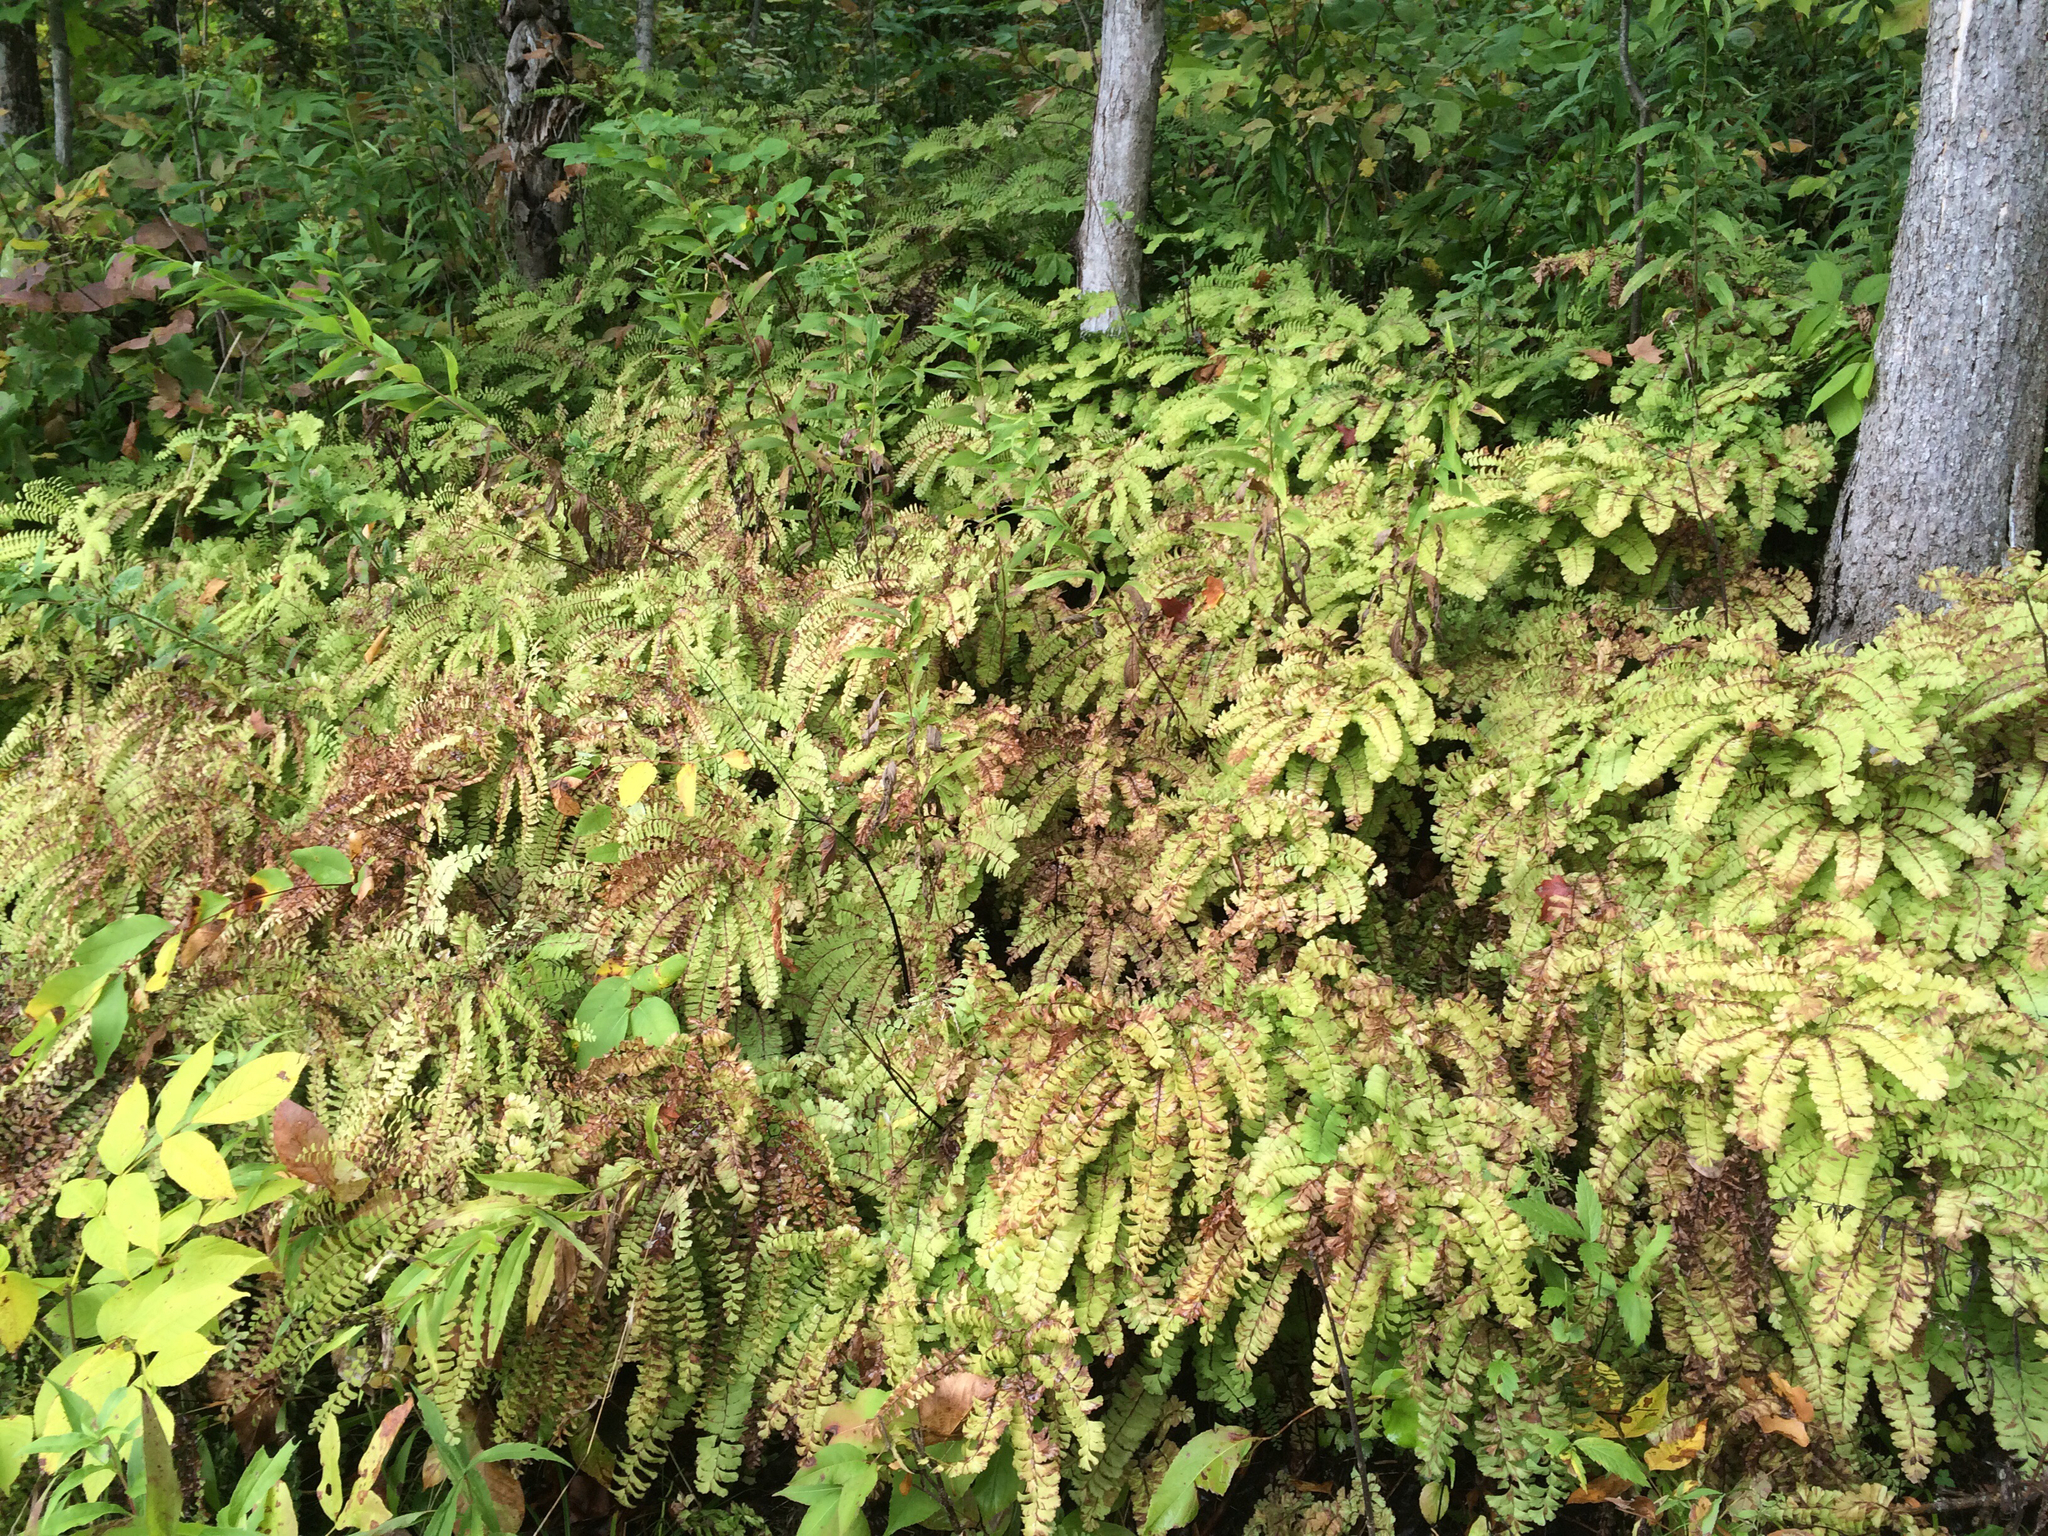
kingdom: Plantae
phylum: Tracheophyta
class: Polypodiopsida
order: Polypodiales
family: Pteridaceae
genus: Adiantum
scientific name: Adiantum pedatum
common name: Five-finger fern
